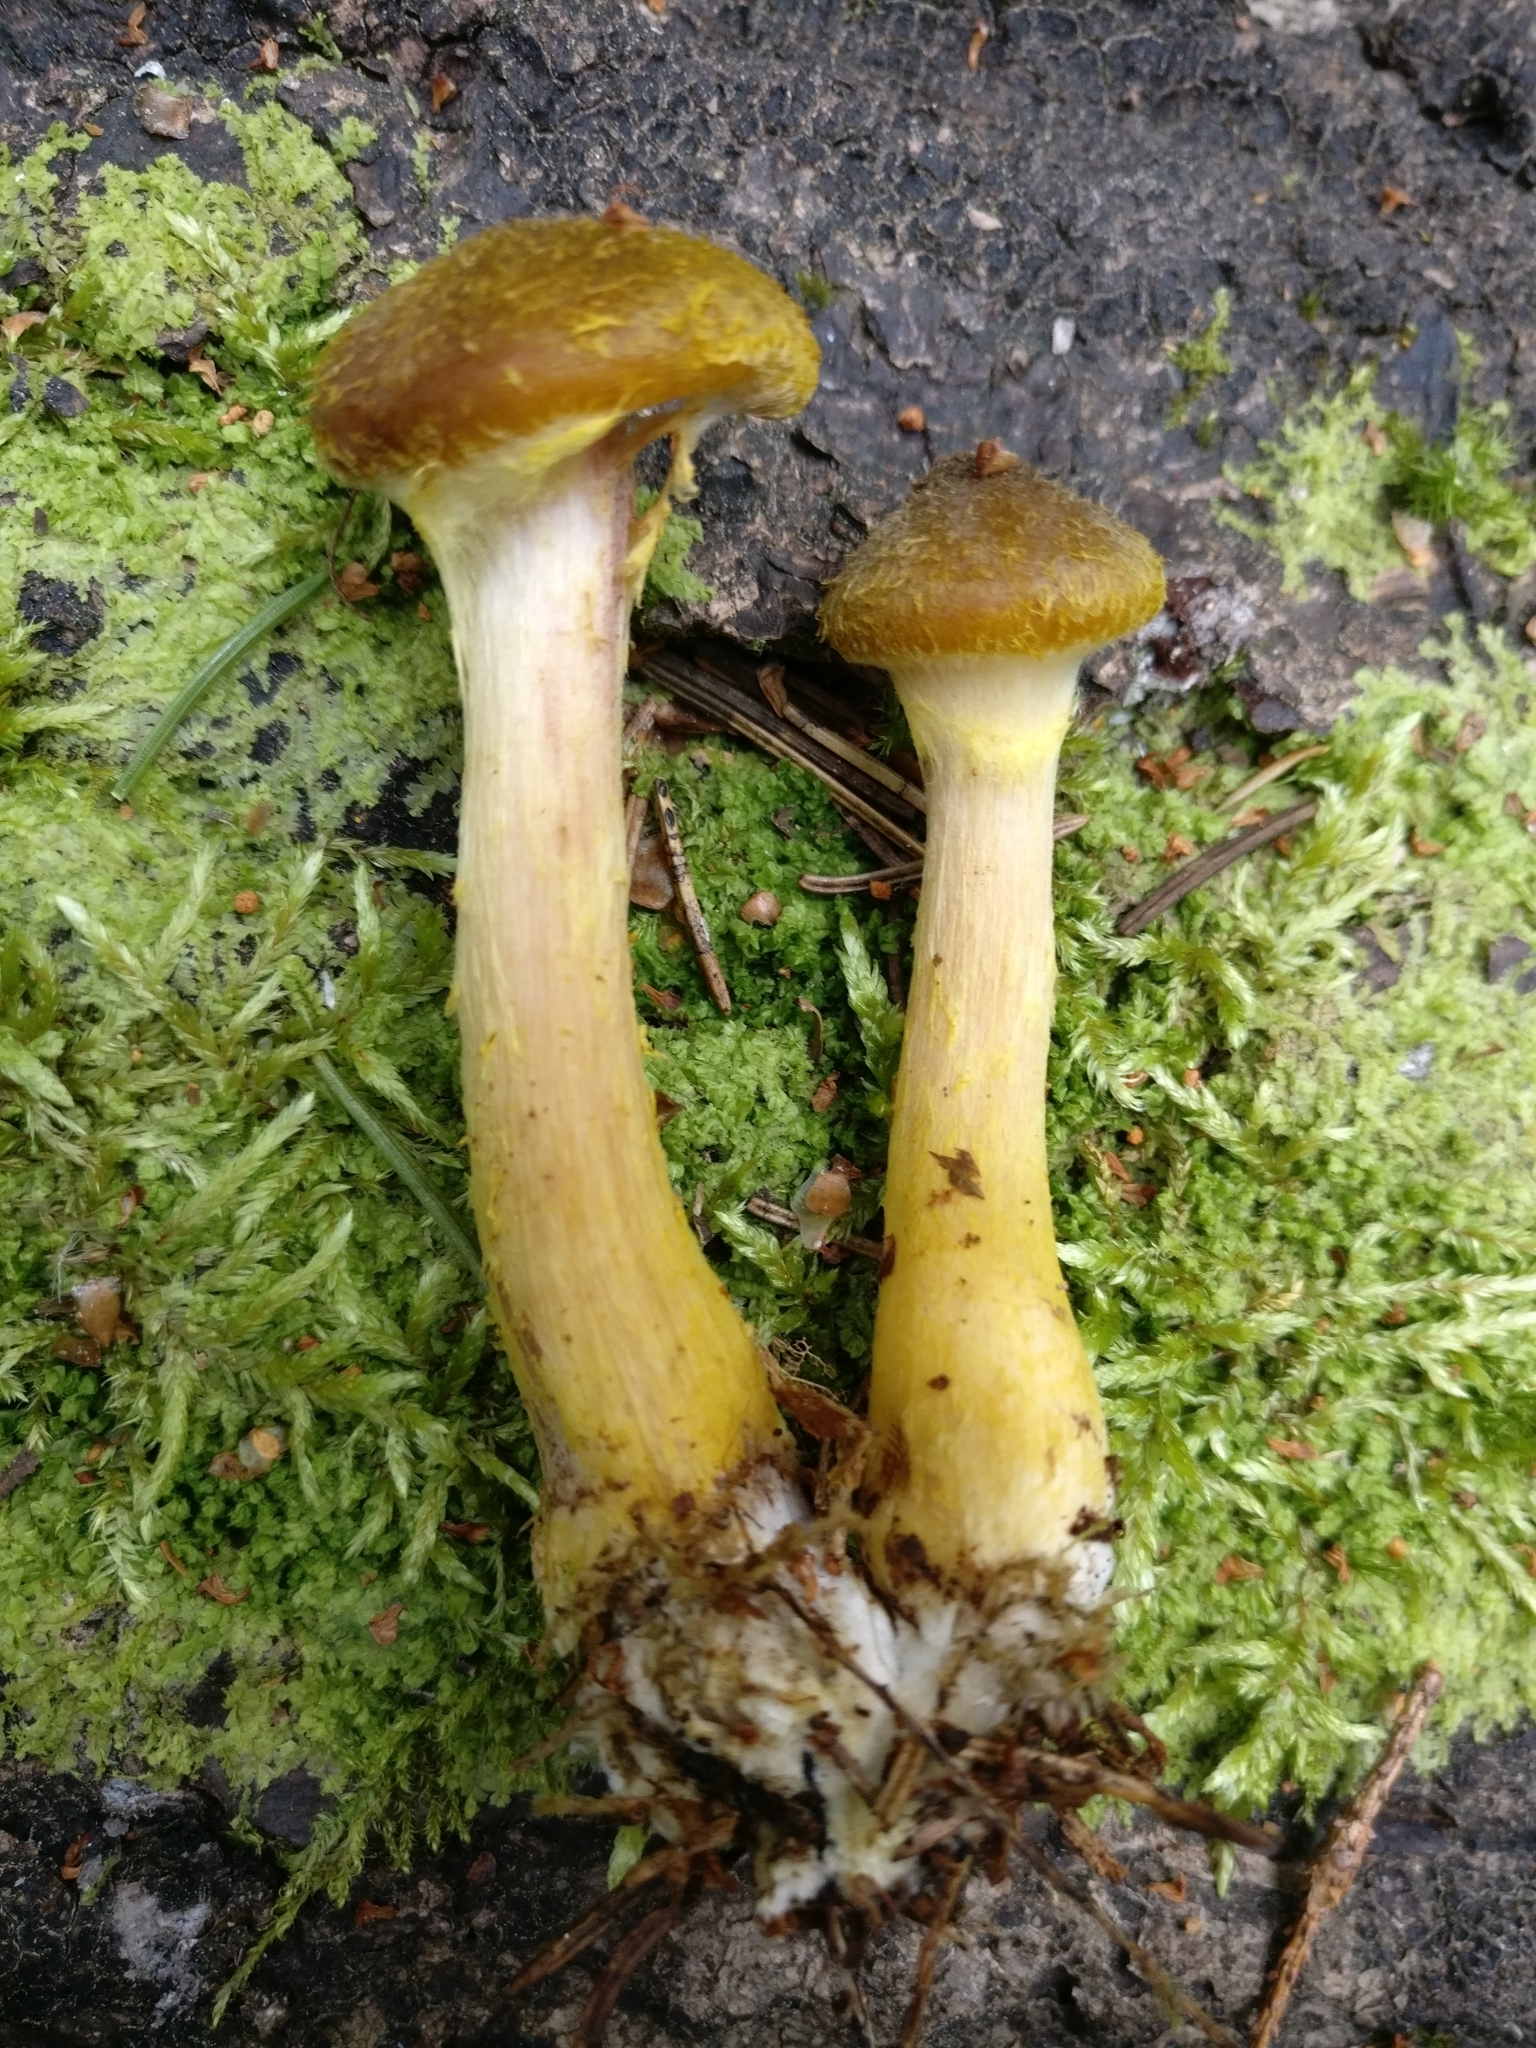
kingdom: Fungi
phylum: Basidiomycota
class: Agaricomycetes
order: Agaricales
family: Physalacriaceae
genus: Armillaria
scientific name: Armillaria gallica
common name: Bulbous honey fungus
